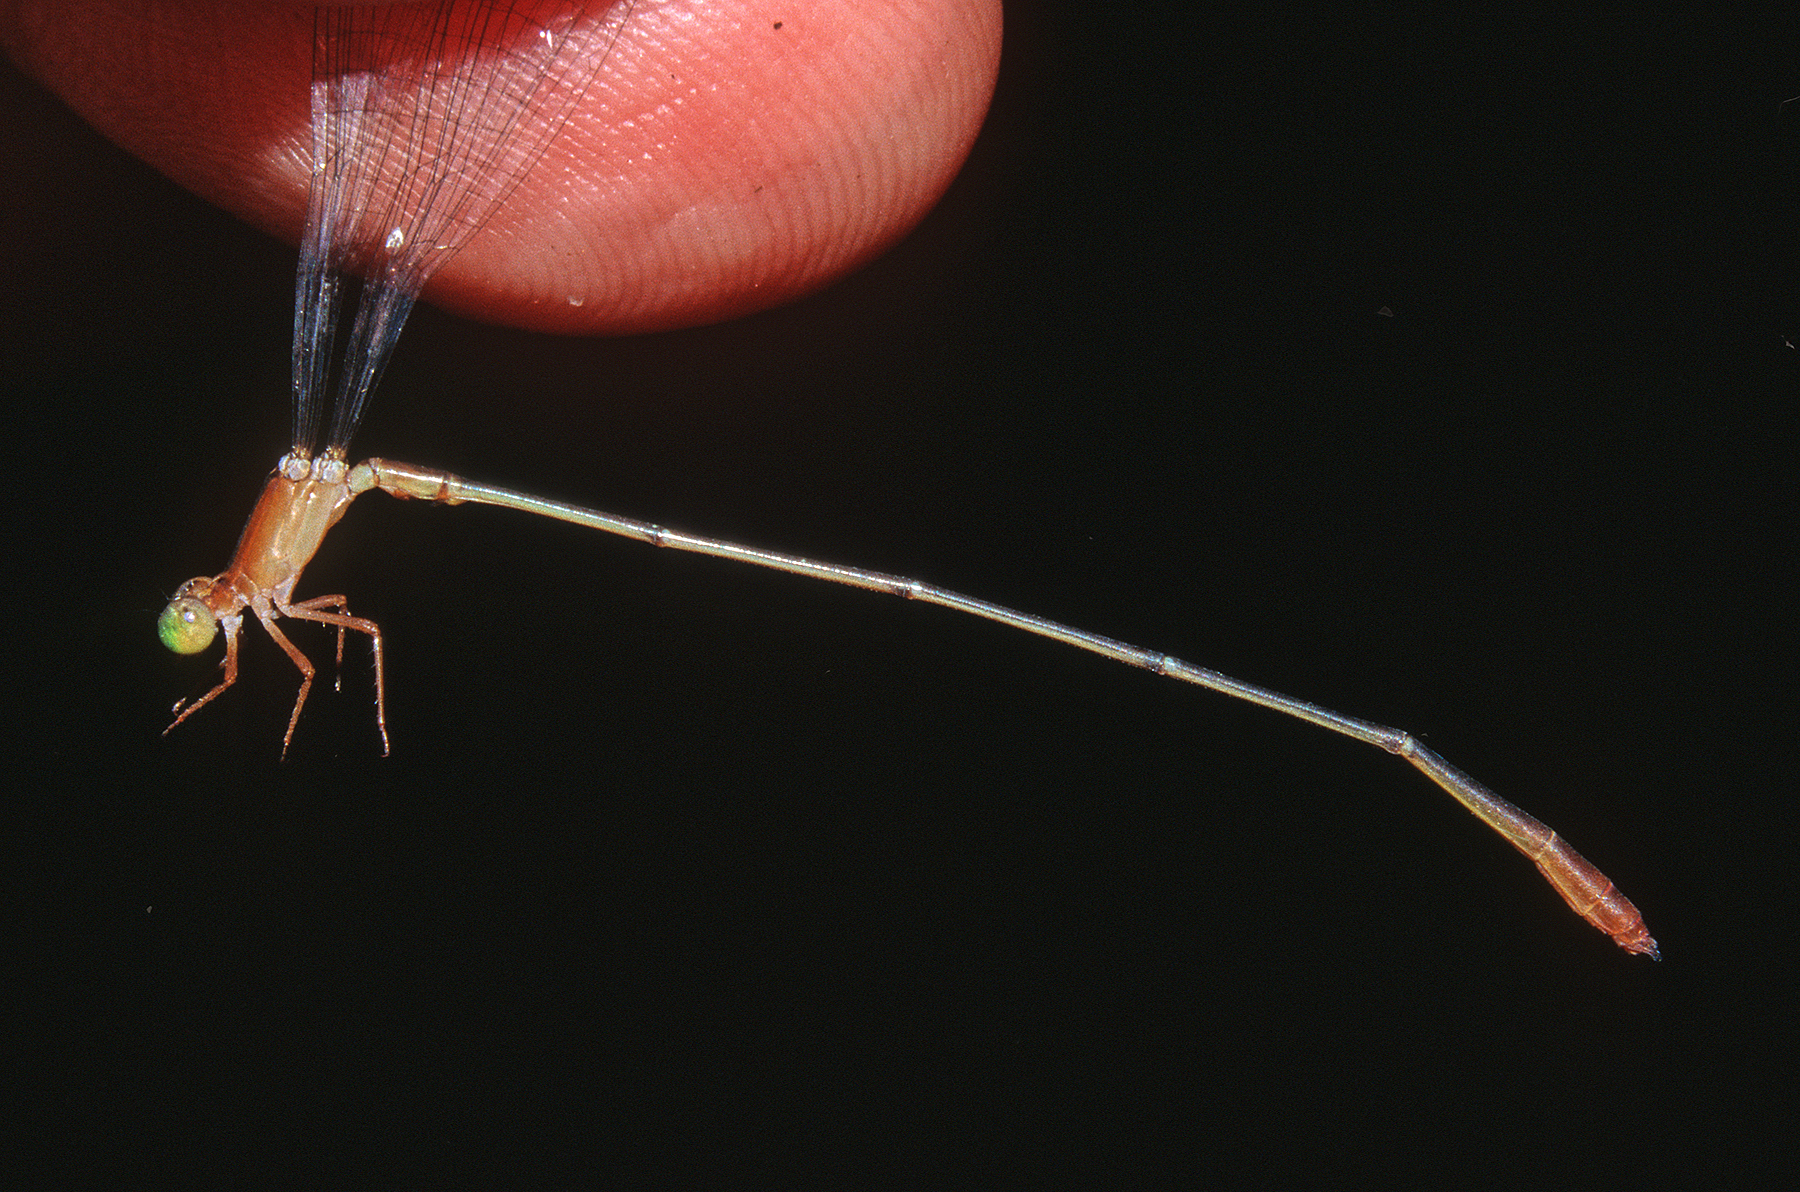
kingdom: Animalia
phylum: Arthropoda
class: Insecta
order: Odonata
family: Coenagrionidae
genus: Metaleptobasis
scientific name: Metaleptobasis brysonima
